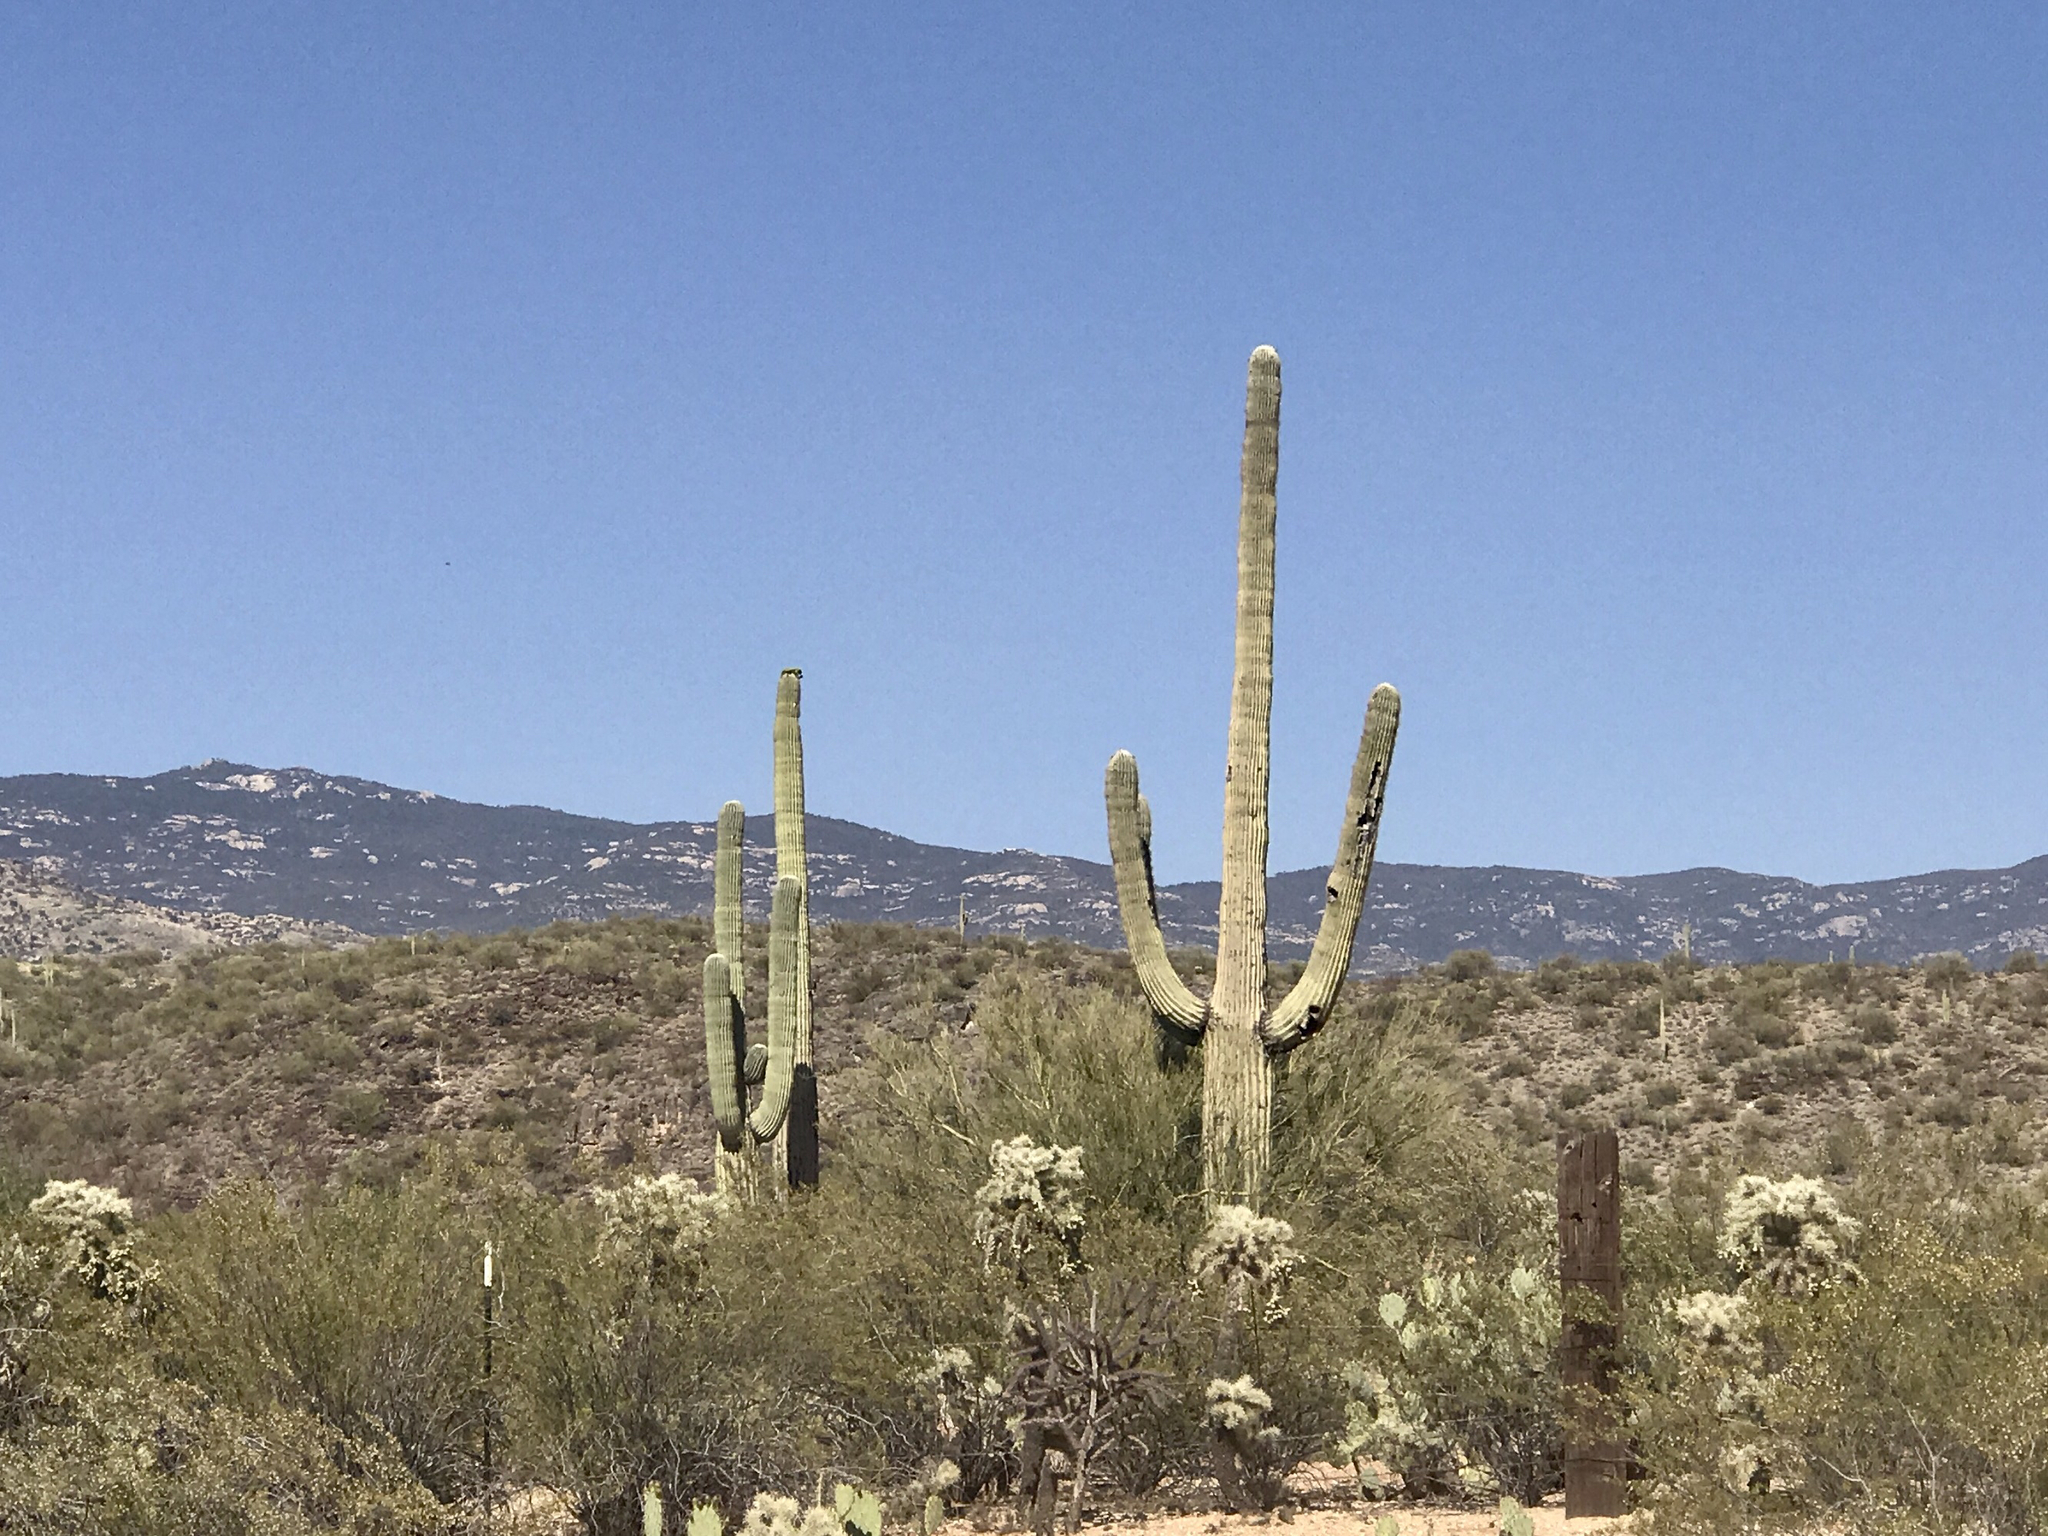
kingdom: Plantae
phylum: Tracheophyta
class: Magnoliopsida
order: Caryophyllales
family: Cactaceae
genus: Carnegiea
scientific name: Carnegiea gigantea
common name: Saguaro
